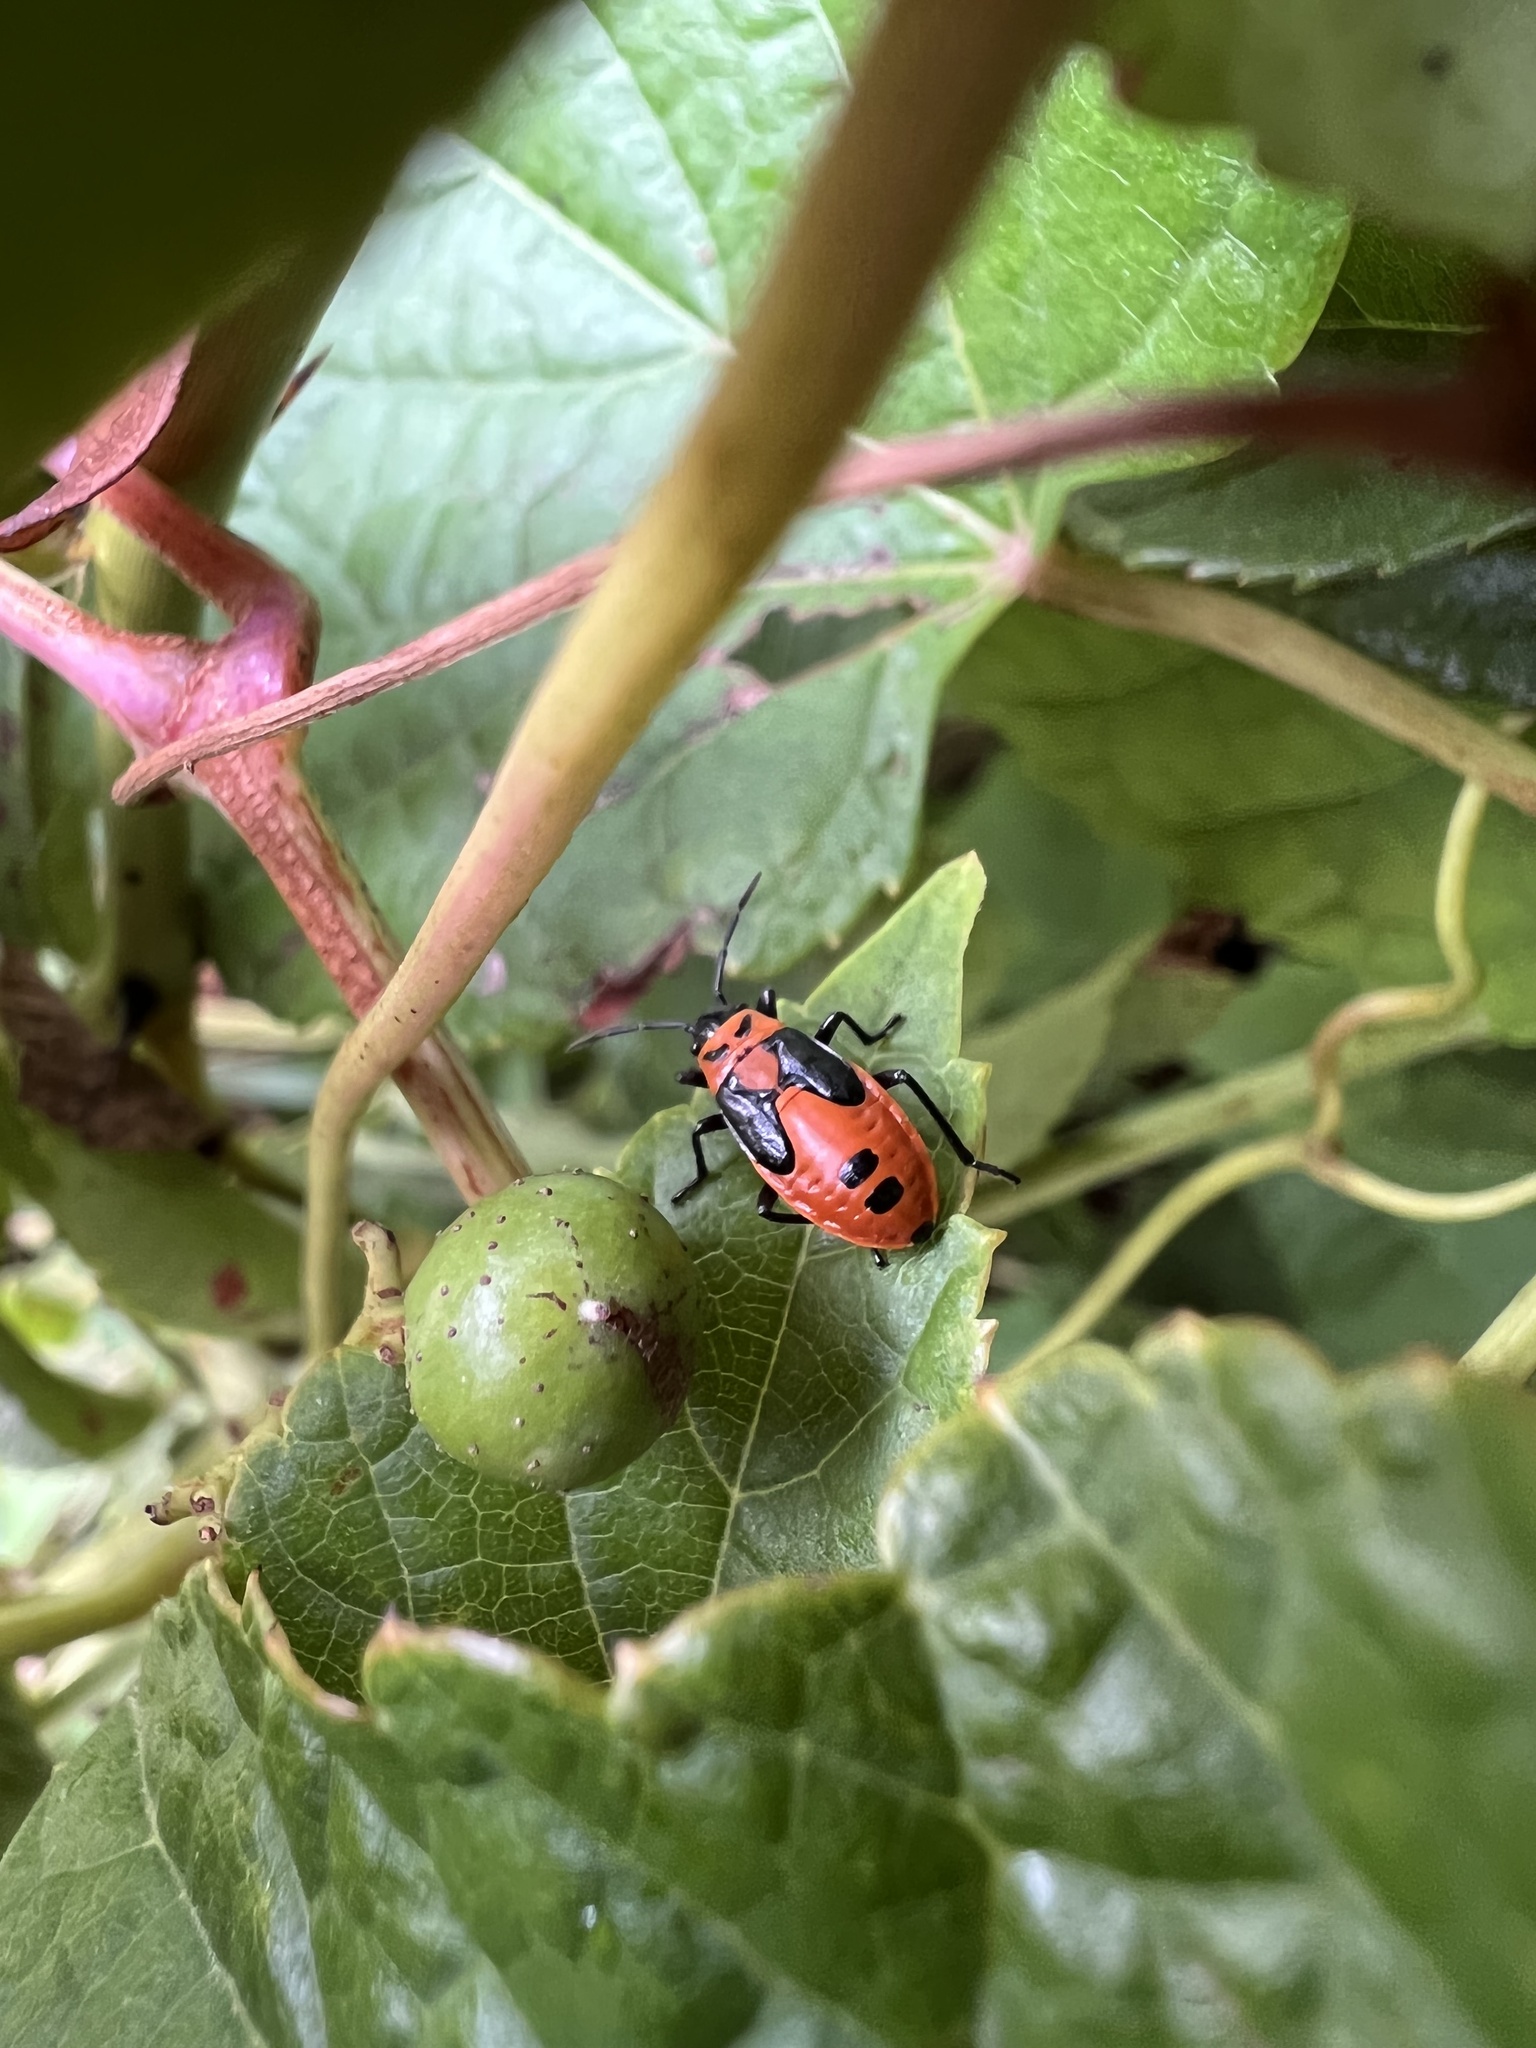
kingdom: Animalia
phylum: Arthropoda
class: Insecta
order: Hemiptera
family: Lygaeidae
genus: Lygaeus
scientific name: Lygaeus turcicus
